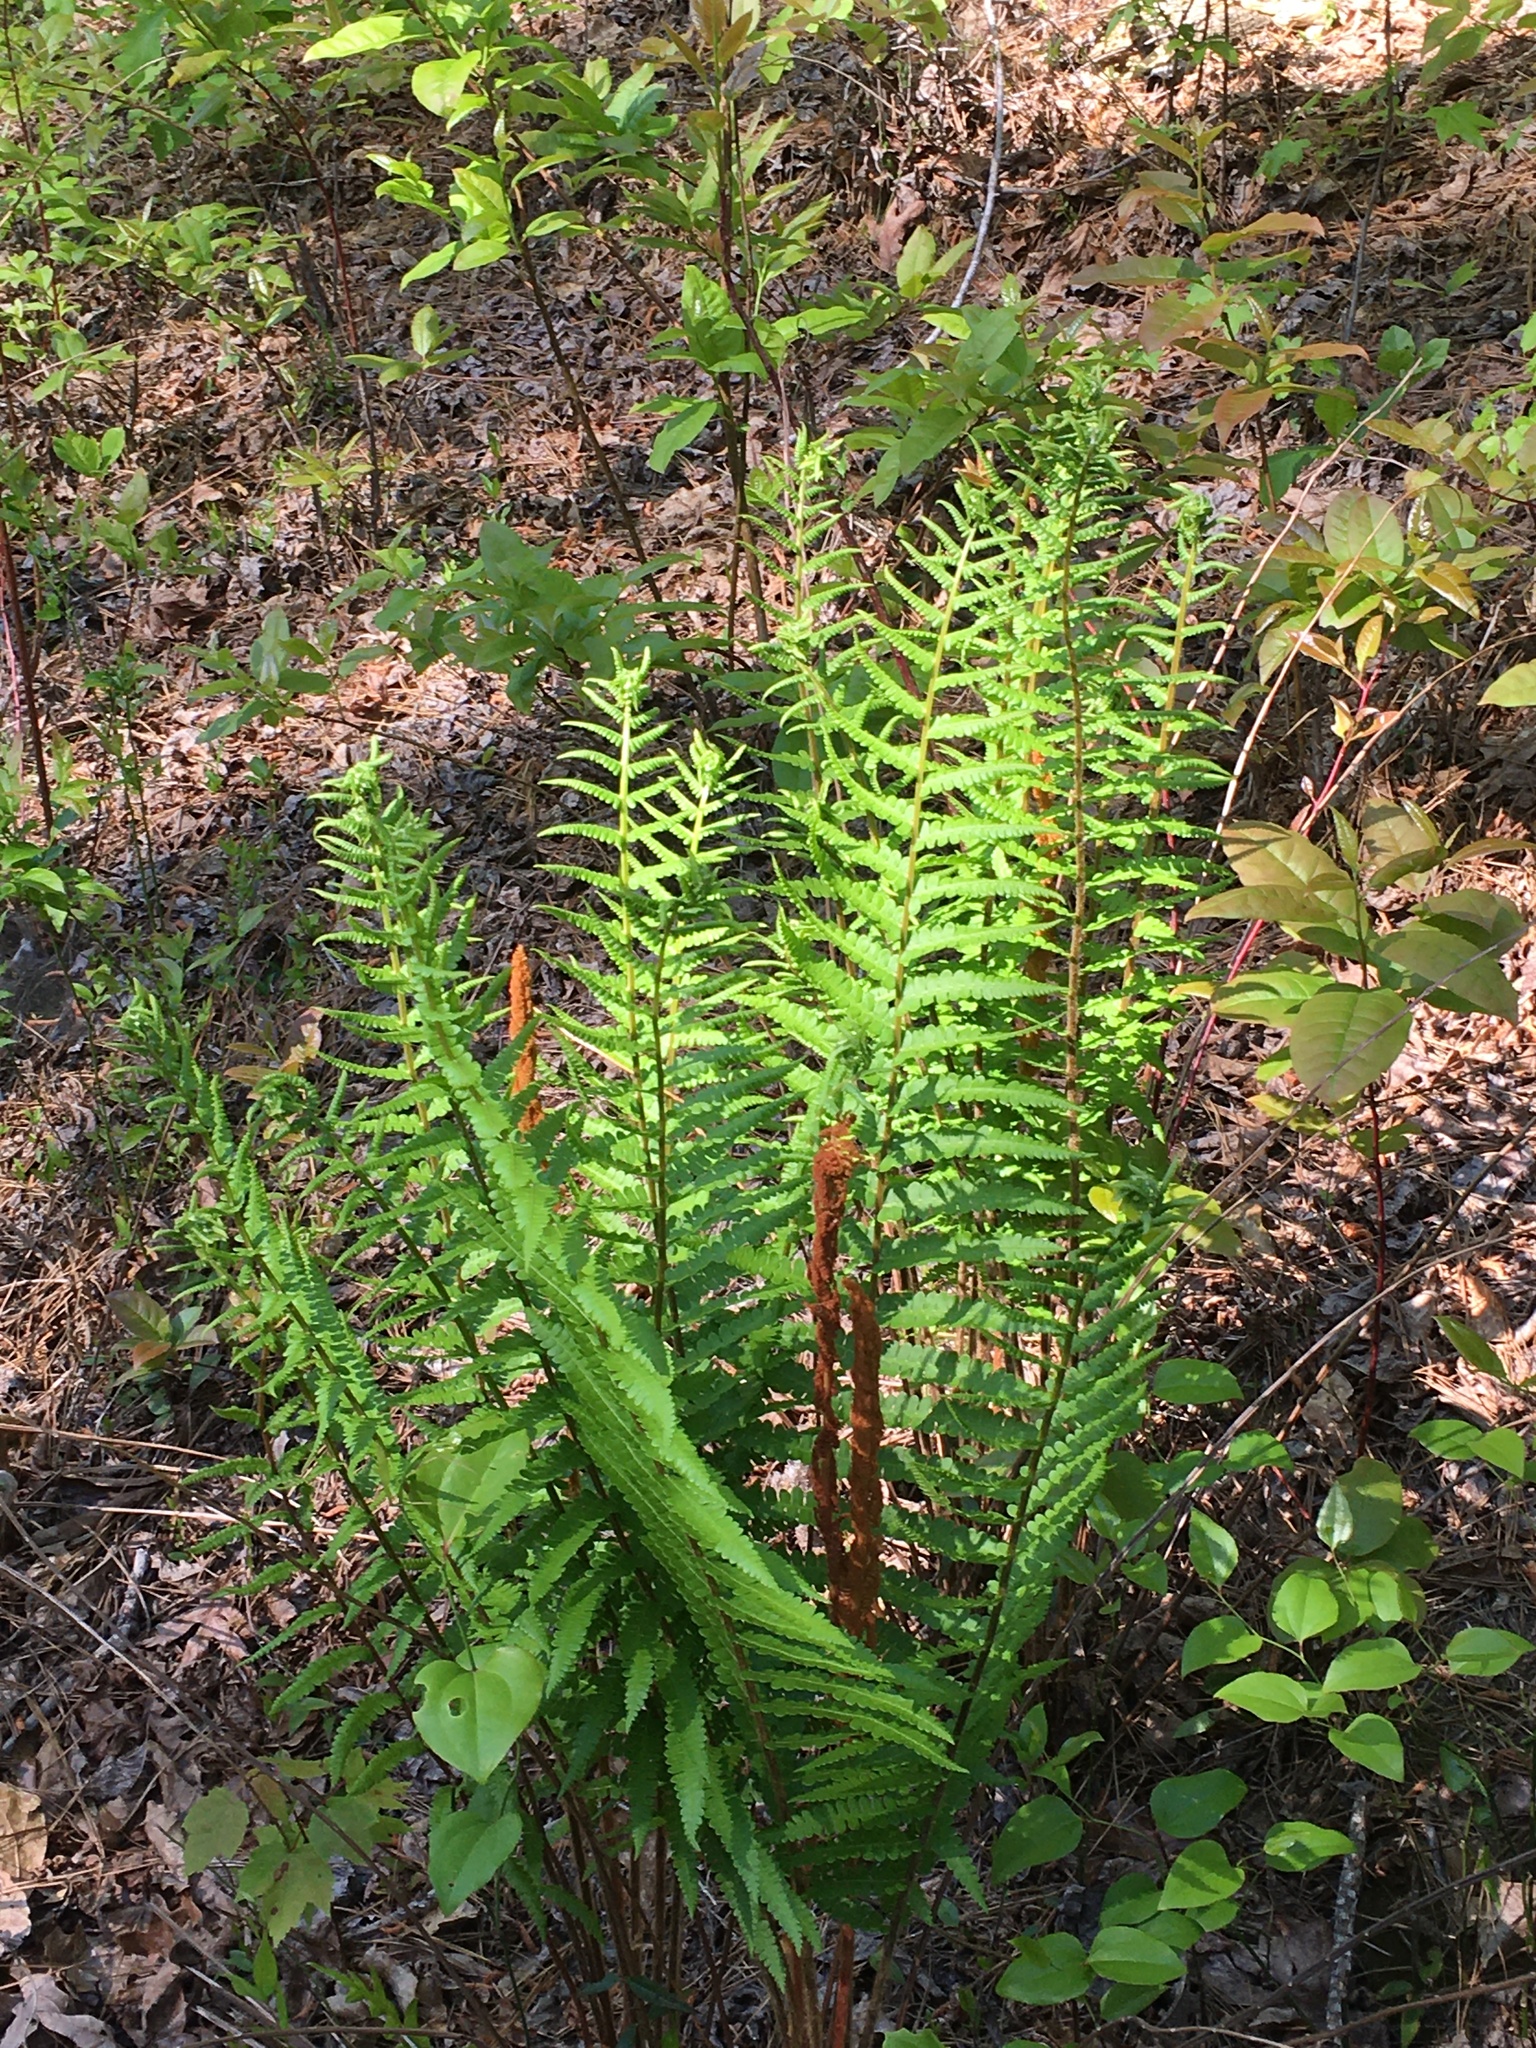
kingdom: Plantae
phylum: Tracheophyta
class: Polypodiopsida
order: Osmundales
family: Osmundaceae
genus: Osmundastrum
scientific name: Osmundastrum cinnamomeum
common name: Cinnamon fern
